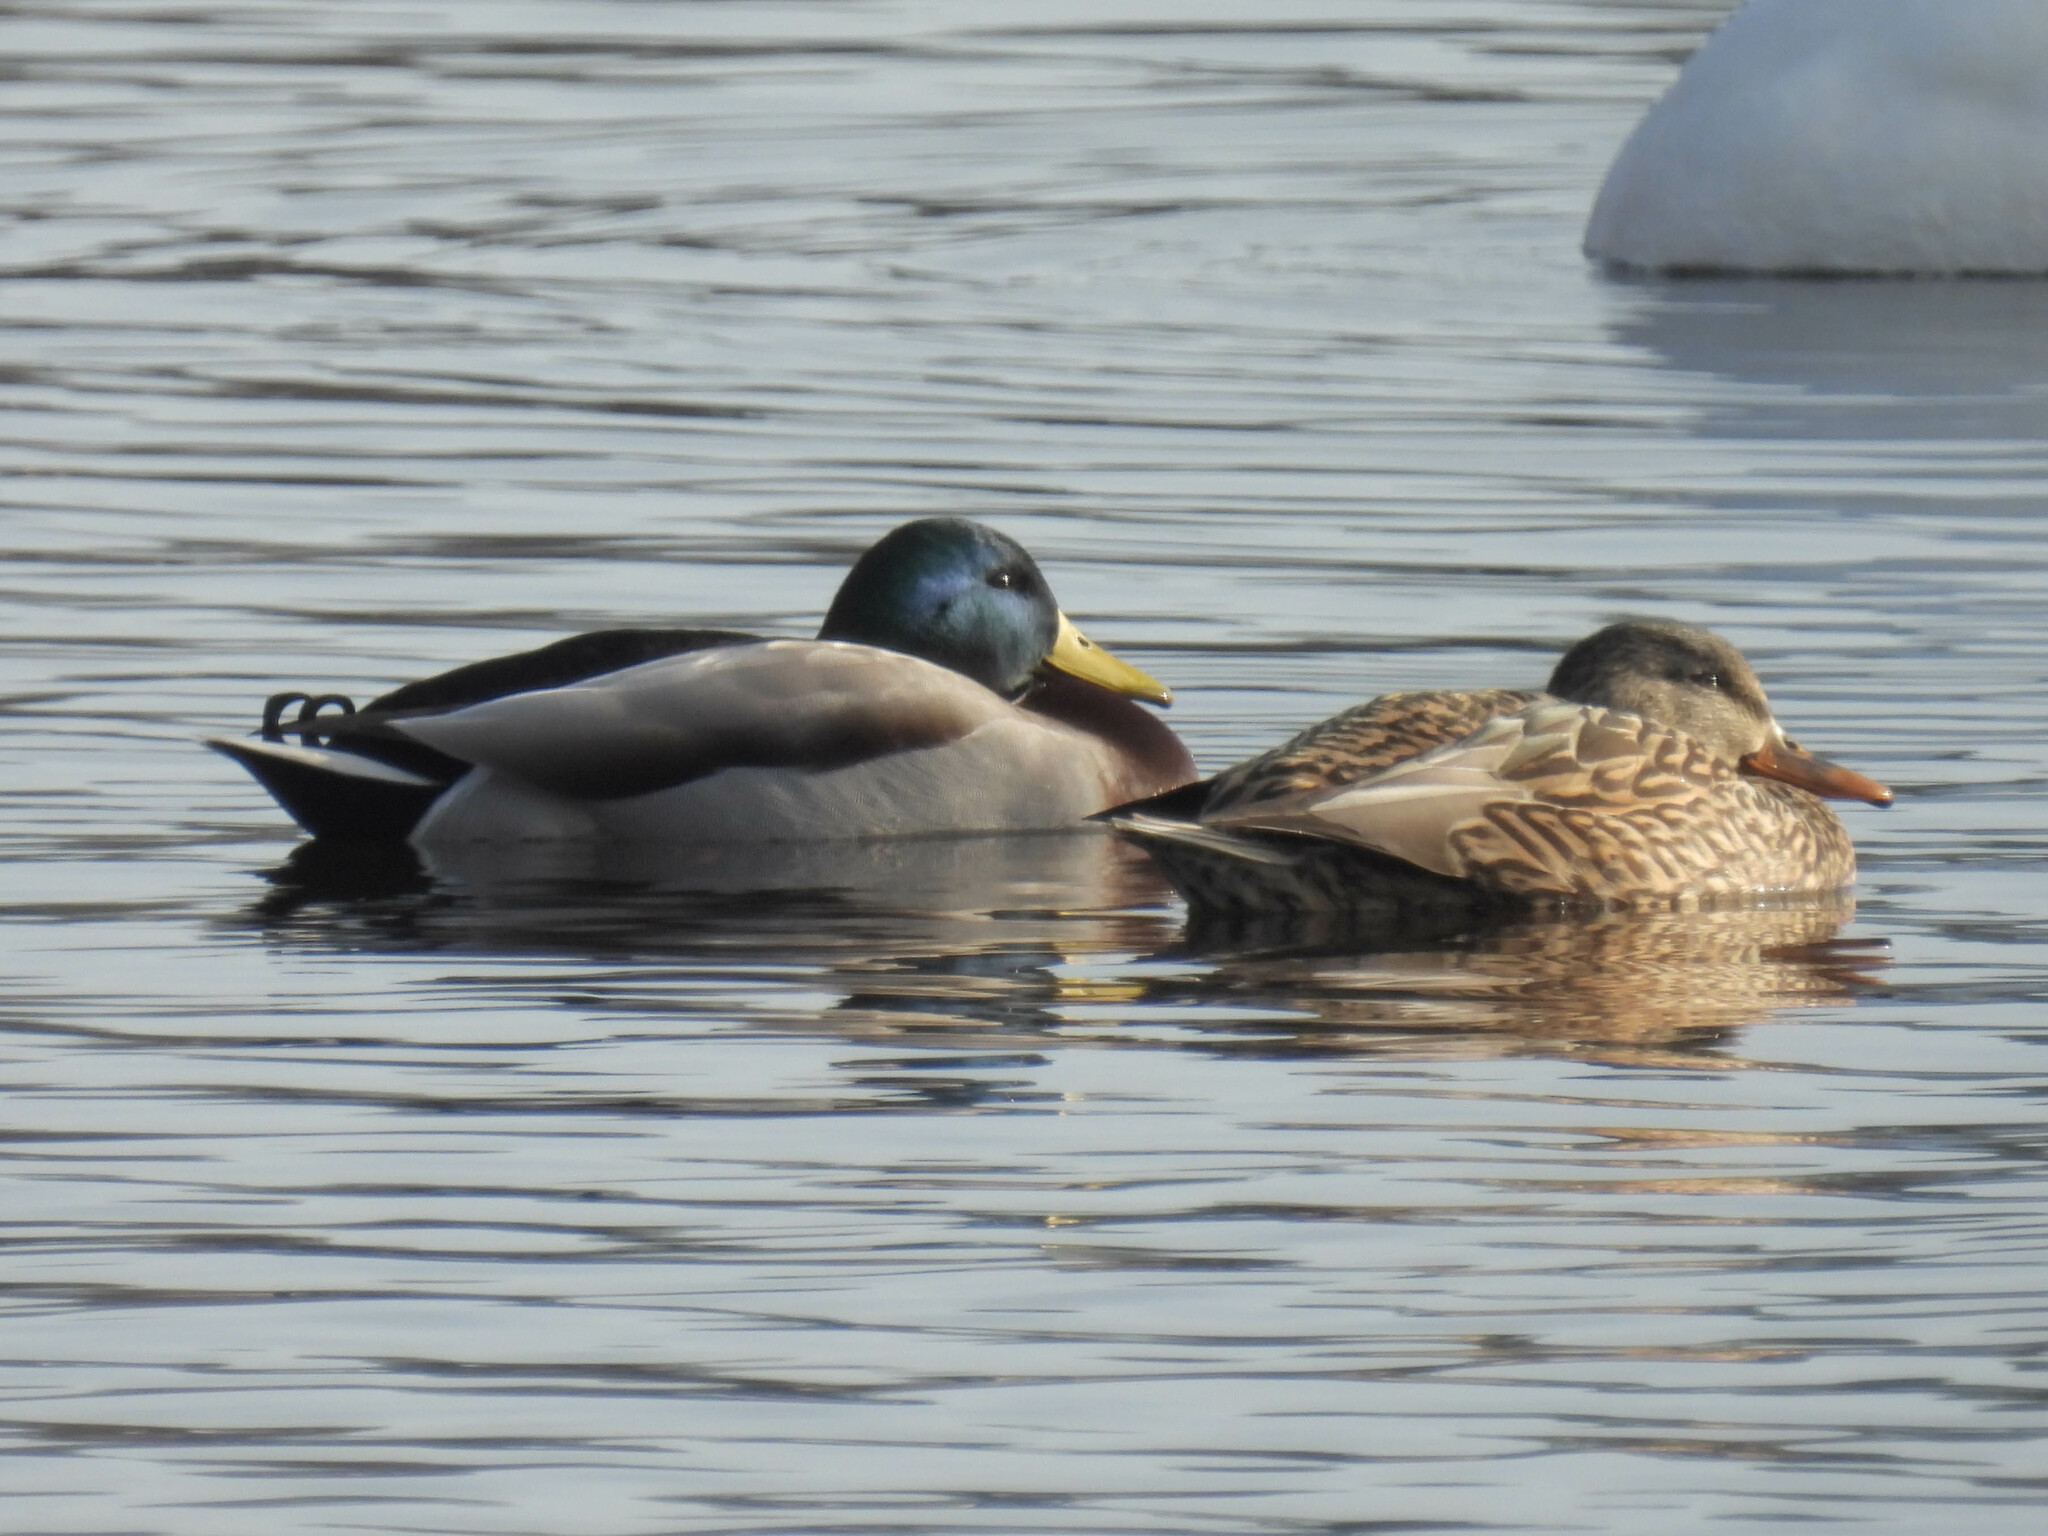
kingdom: Animalia
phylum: Chordata
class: Aves
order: Anseriformes
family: Anatidae
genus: Anas
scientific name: Anas platyrhynchos
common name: Mallard
